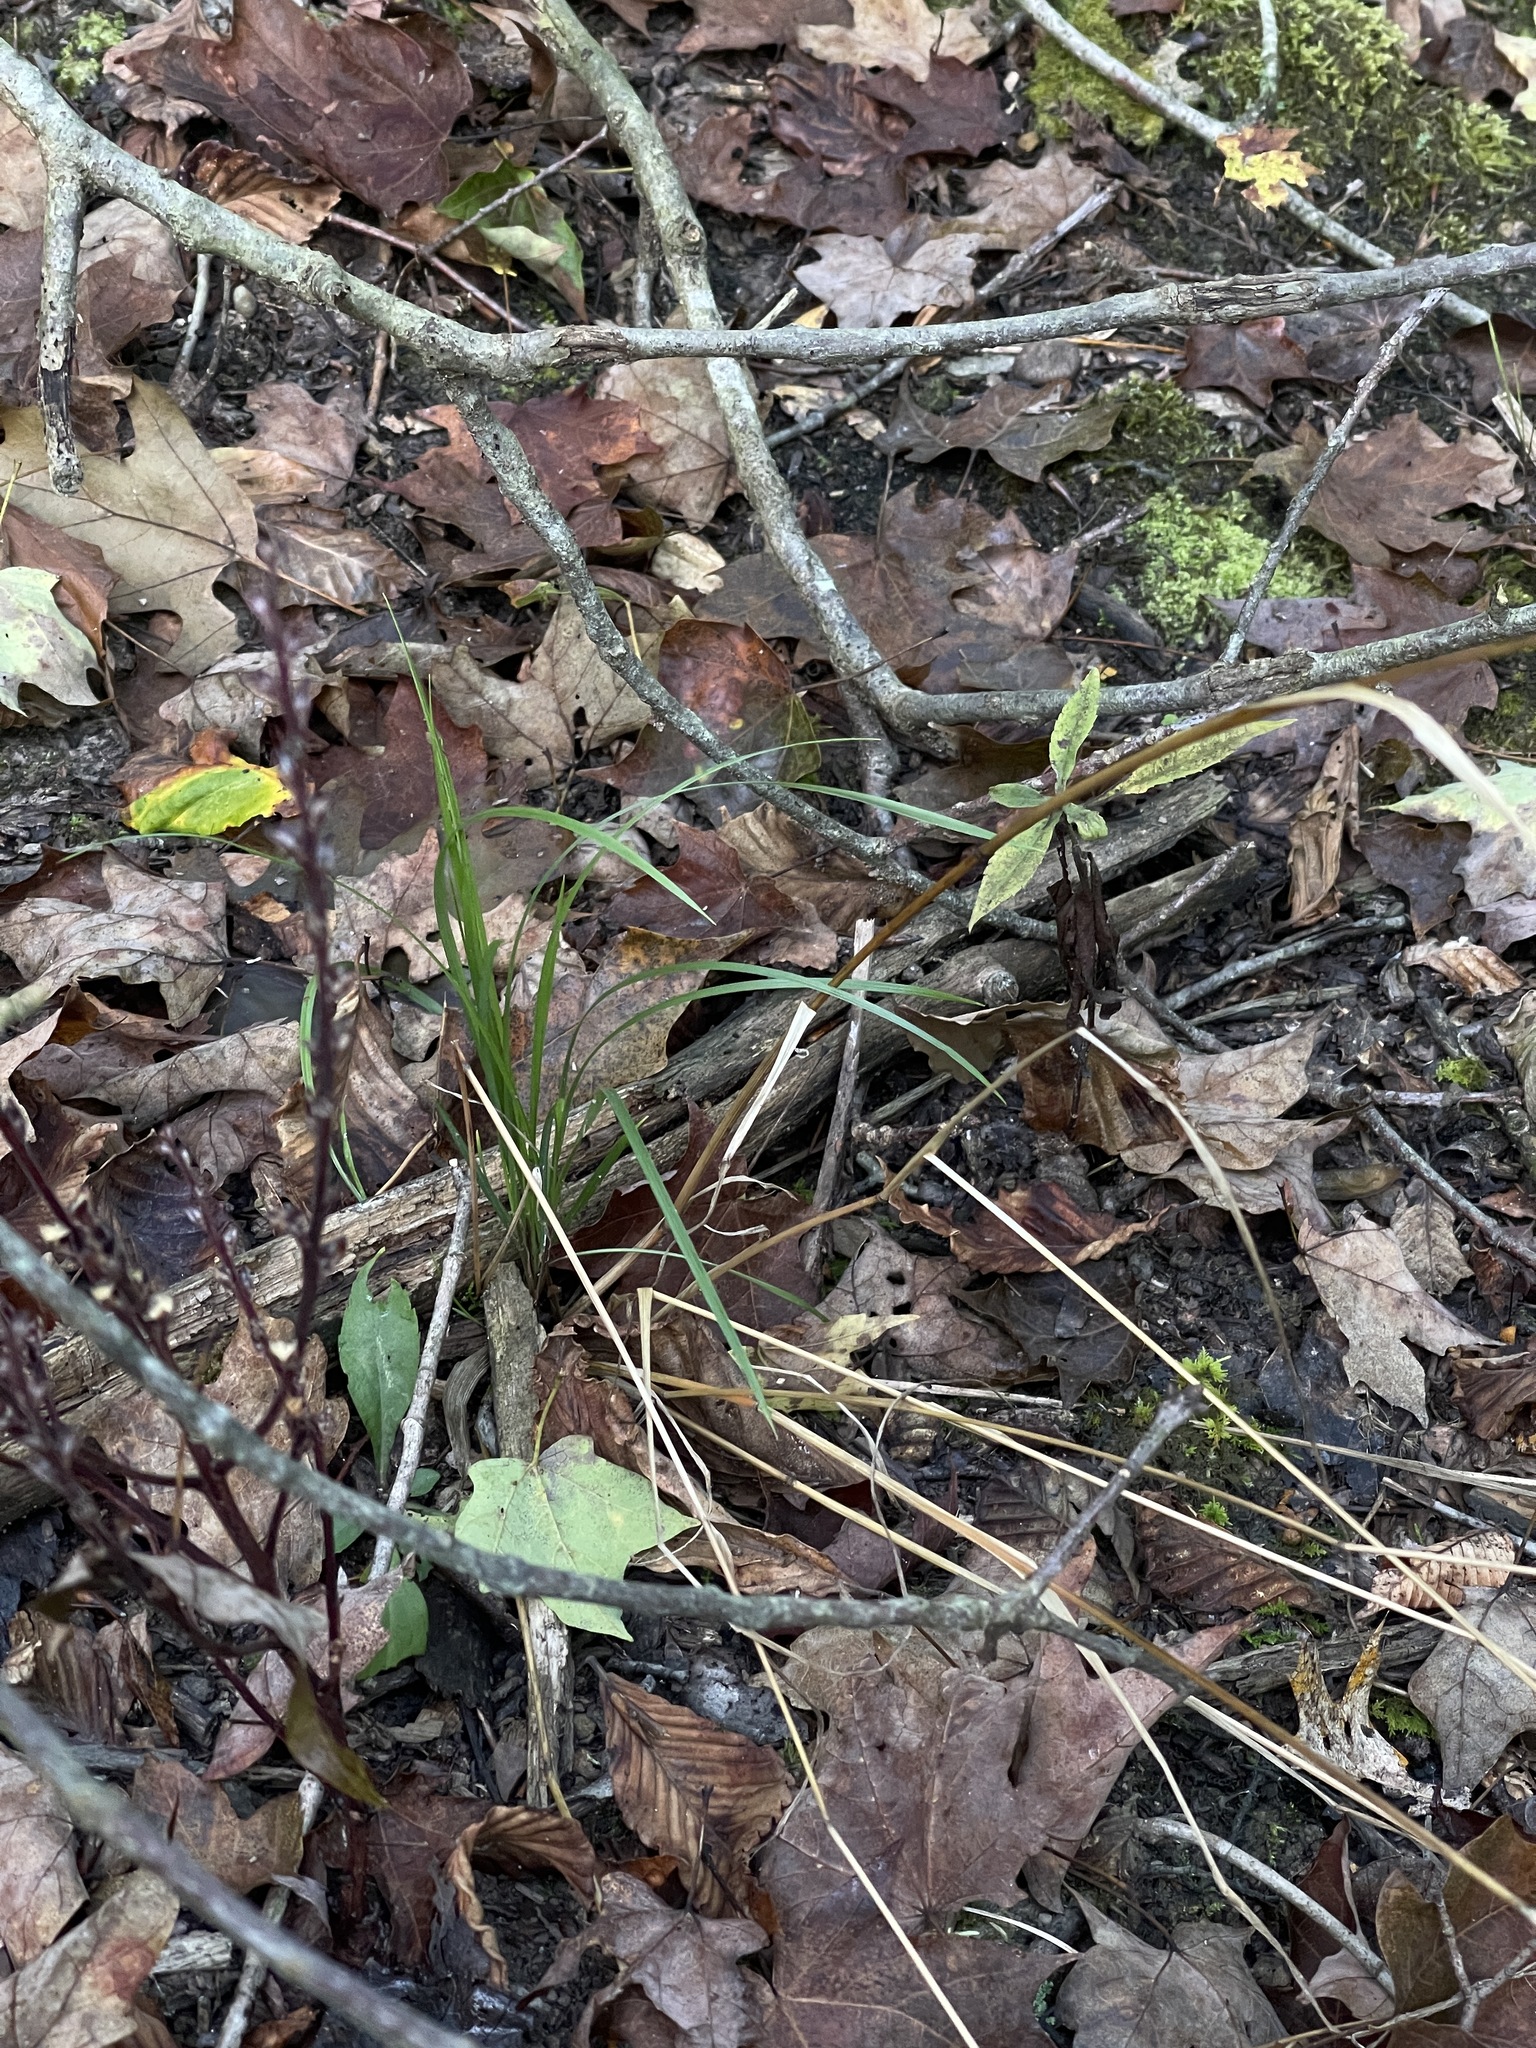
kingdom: Plantae
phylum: Tracheophyta
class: Liliopsida
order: Poales
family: Poaceae
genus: Festuca
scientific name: Festuca subverticillata
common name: Nodding fescue
